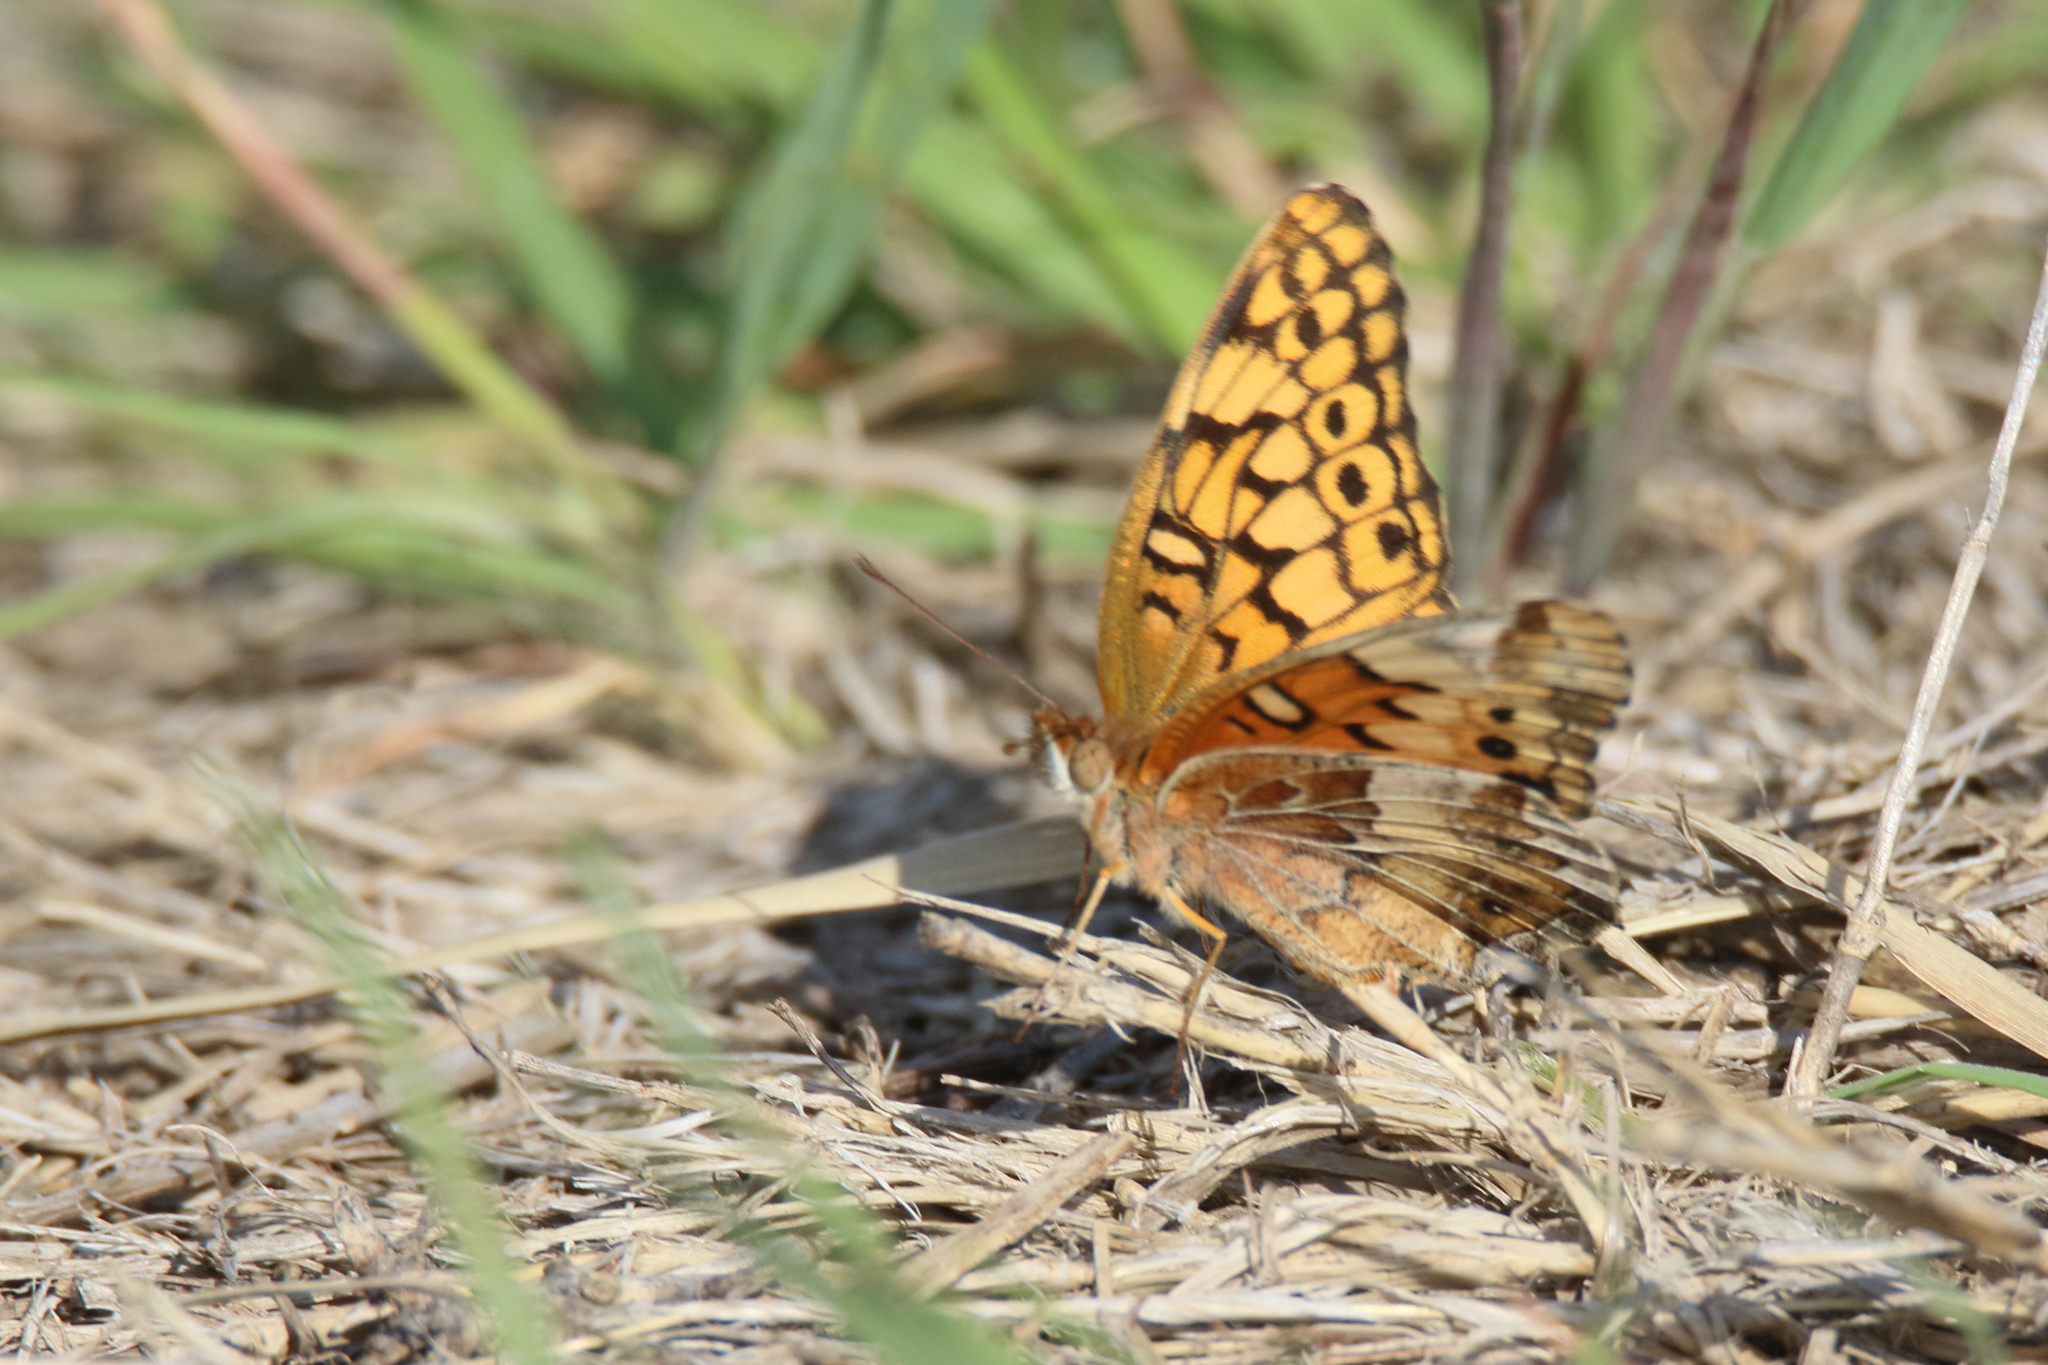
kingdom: Animalia
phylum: Arthropoda
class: Insecta
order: Lepidoptera
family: Nymphalidae
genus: Euptoieta
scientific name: Euptoieta claudia
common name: Variegated fritillary
